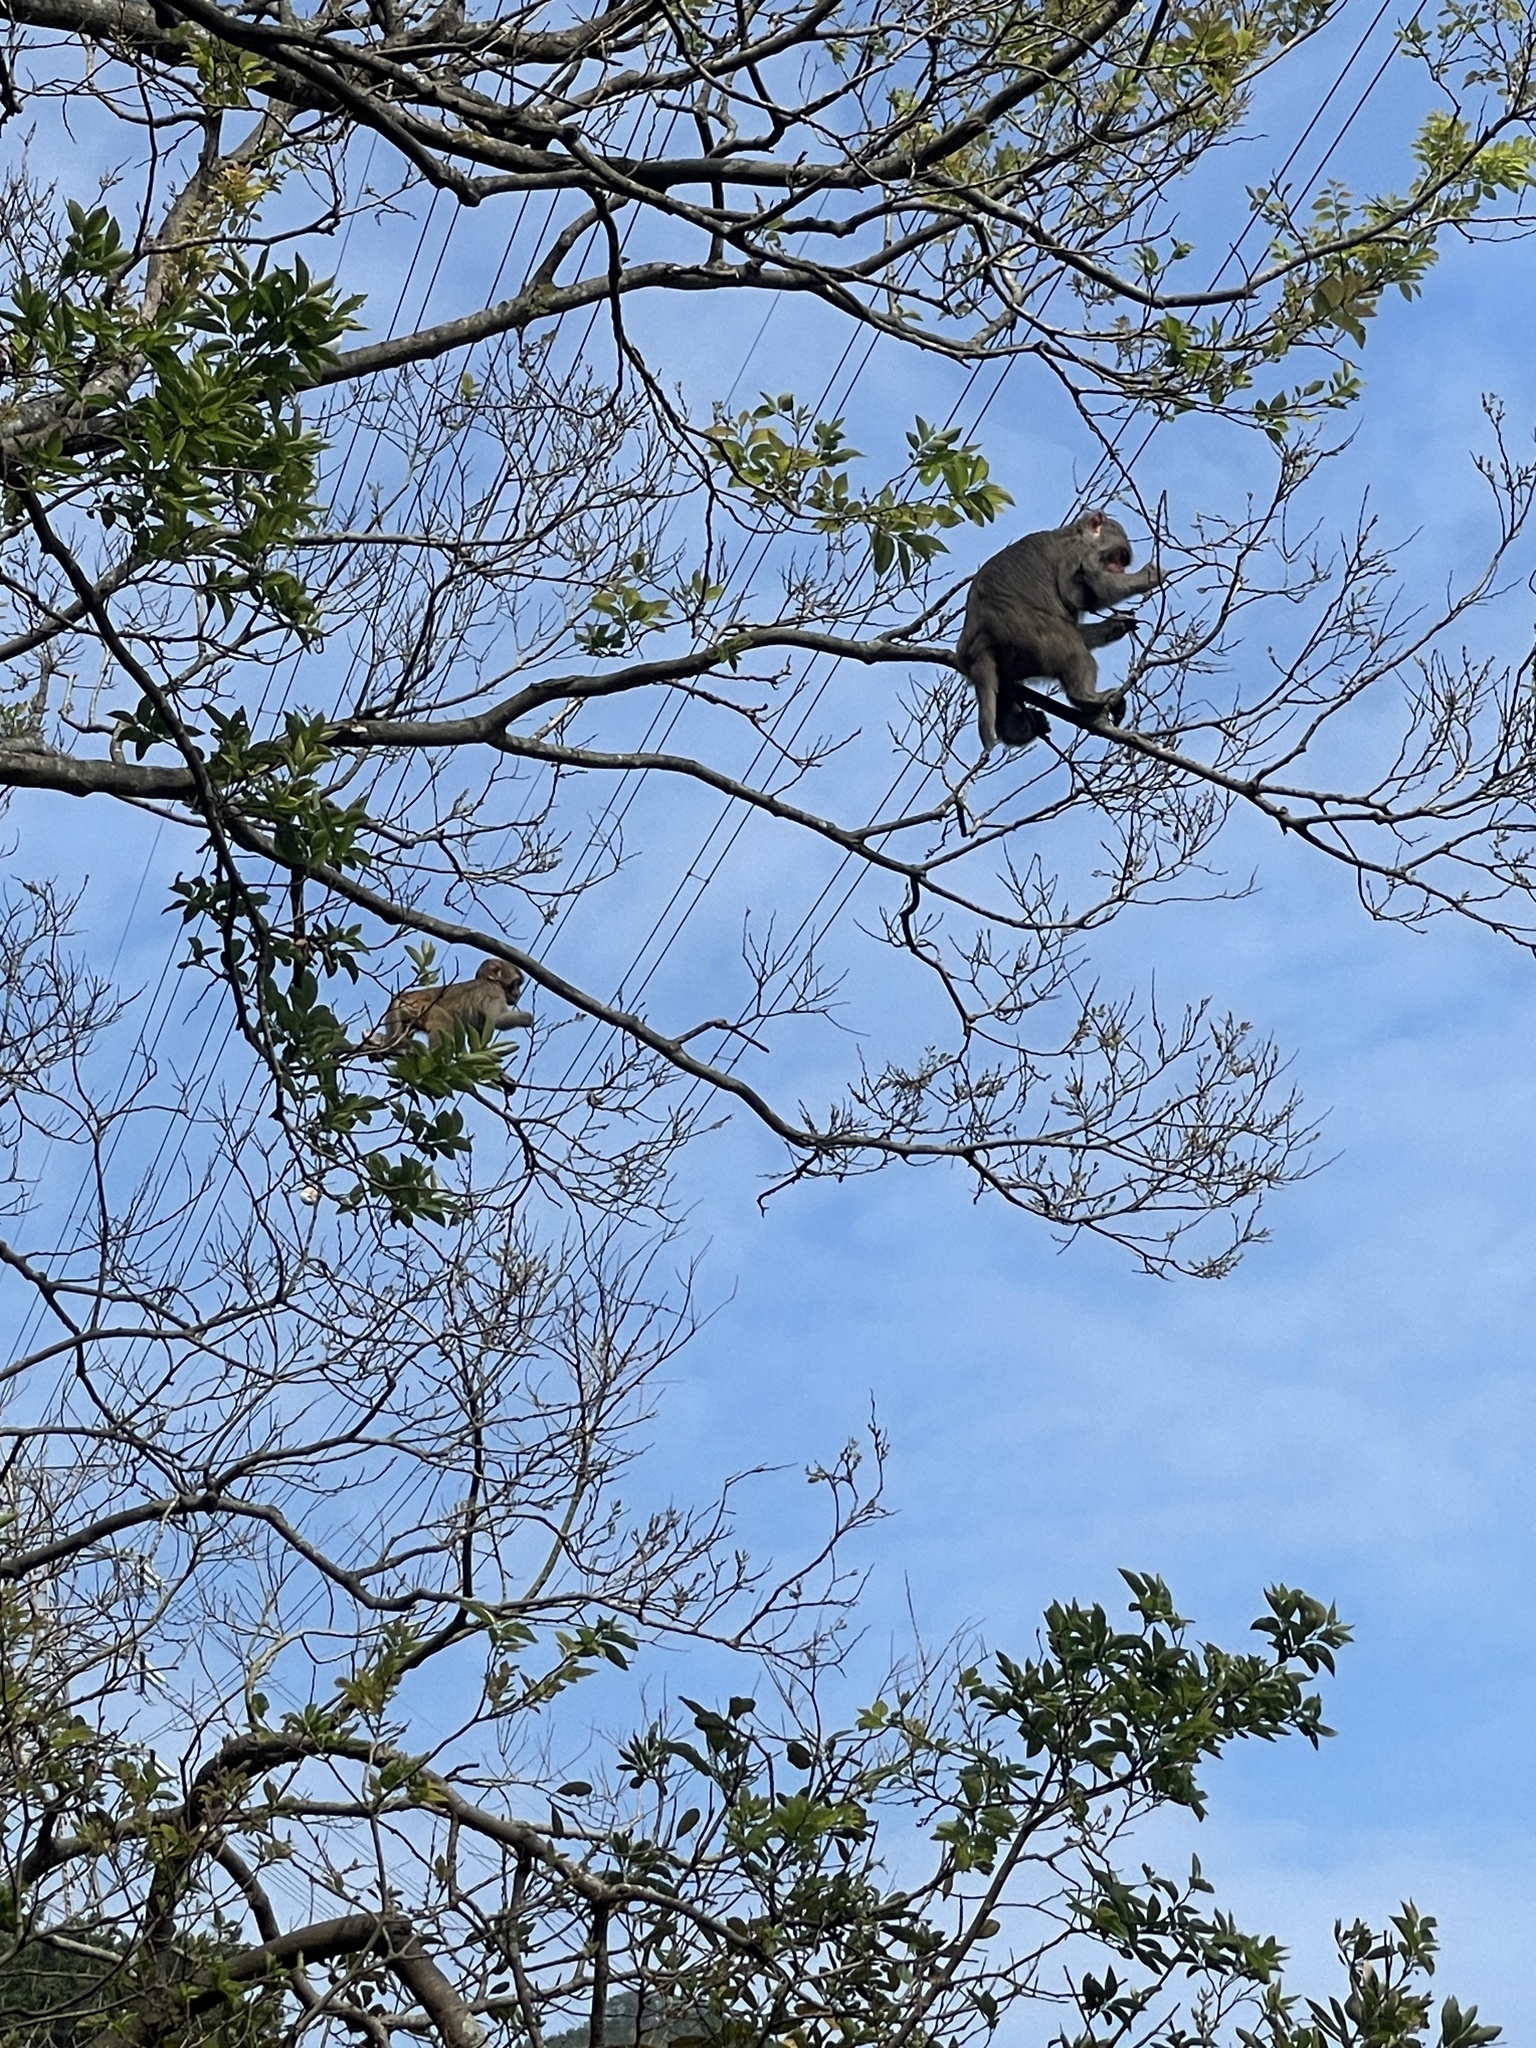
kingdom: Animalia
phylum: Chordata
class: Mammalia
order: Primates
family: Cercopithecidae
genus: Macaca
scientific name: Macaca mulatta
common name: Rhesus monkey
